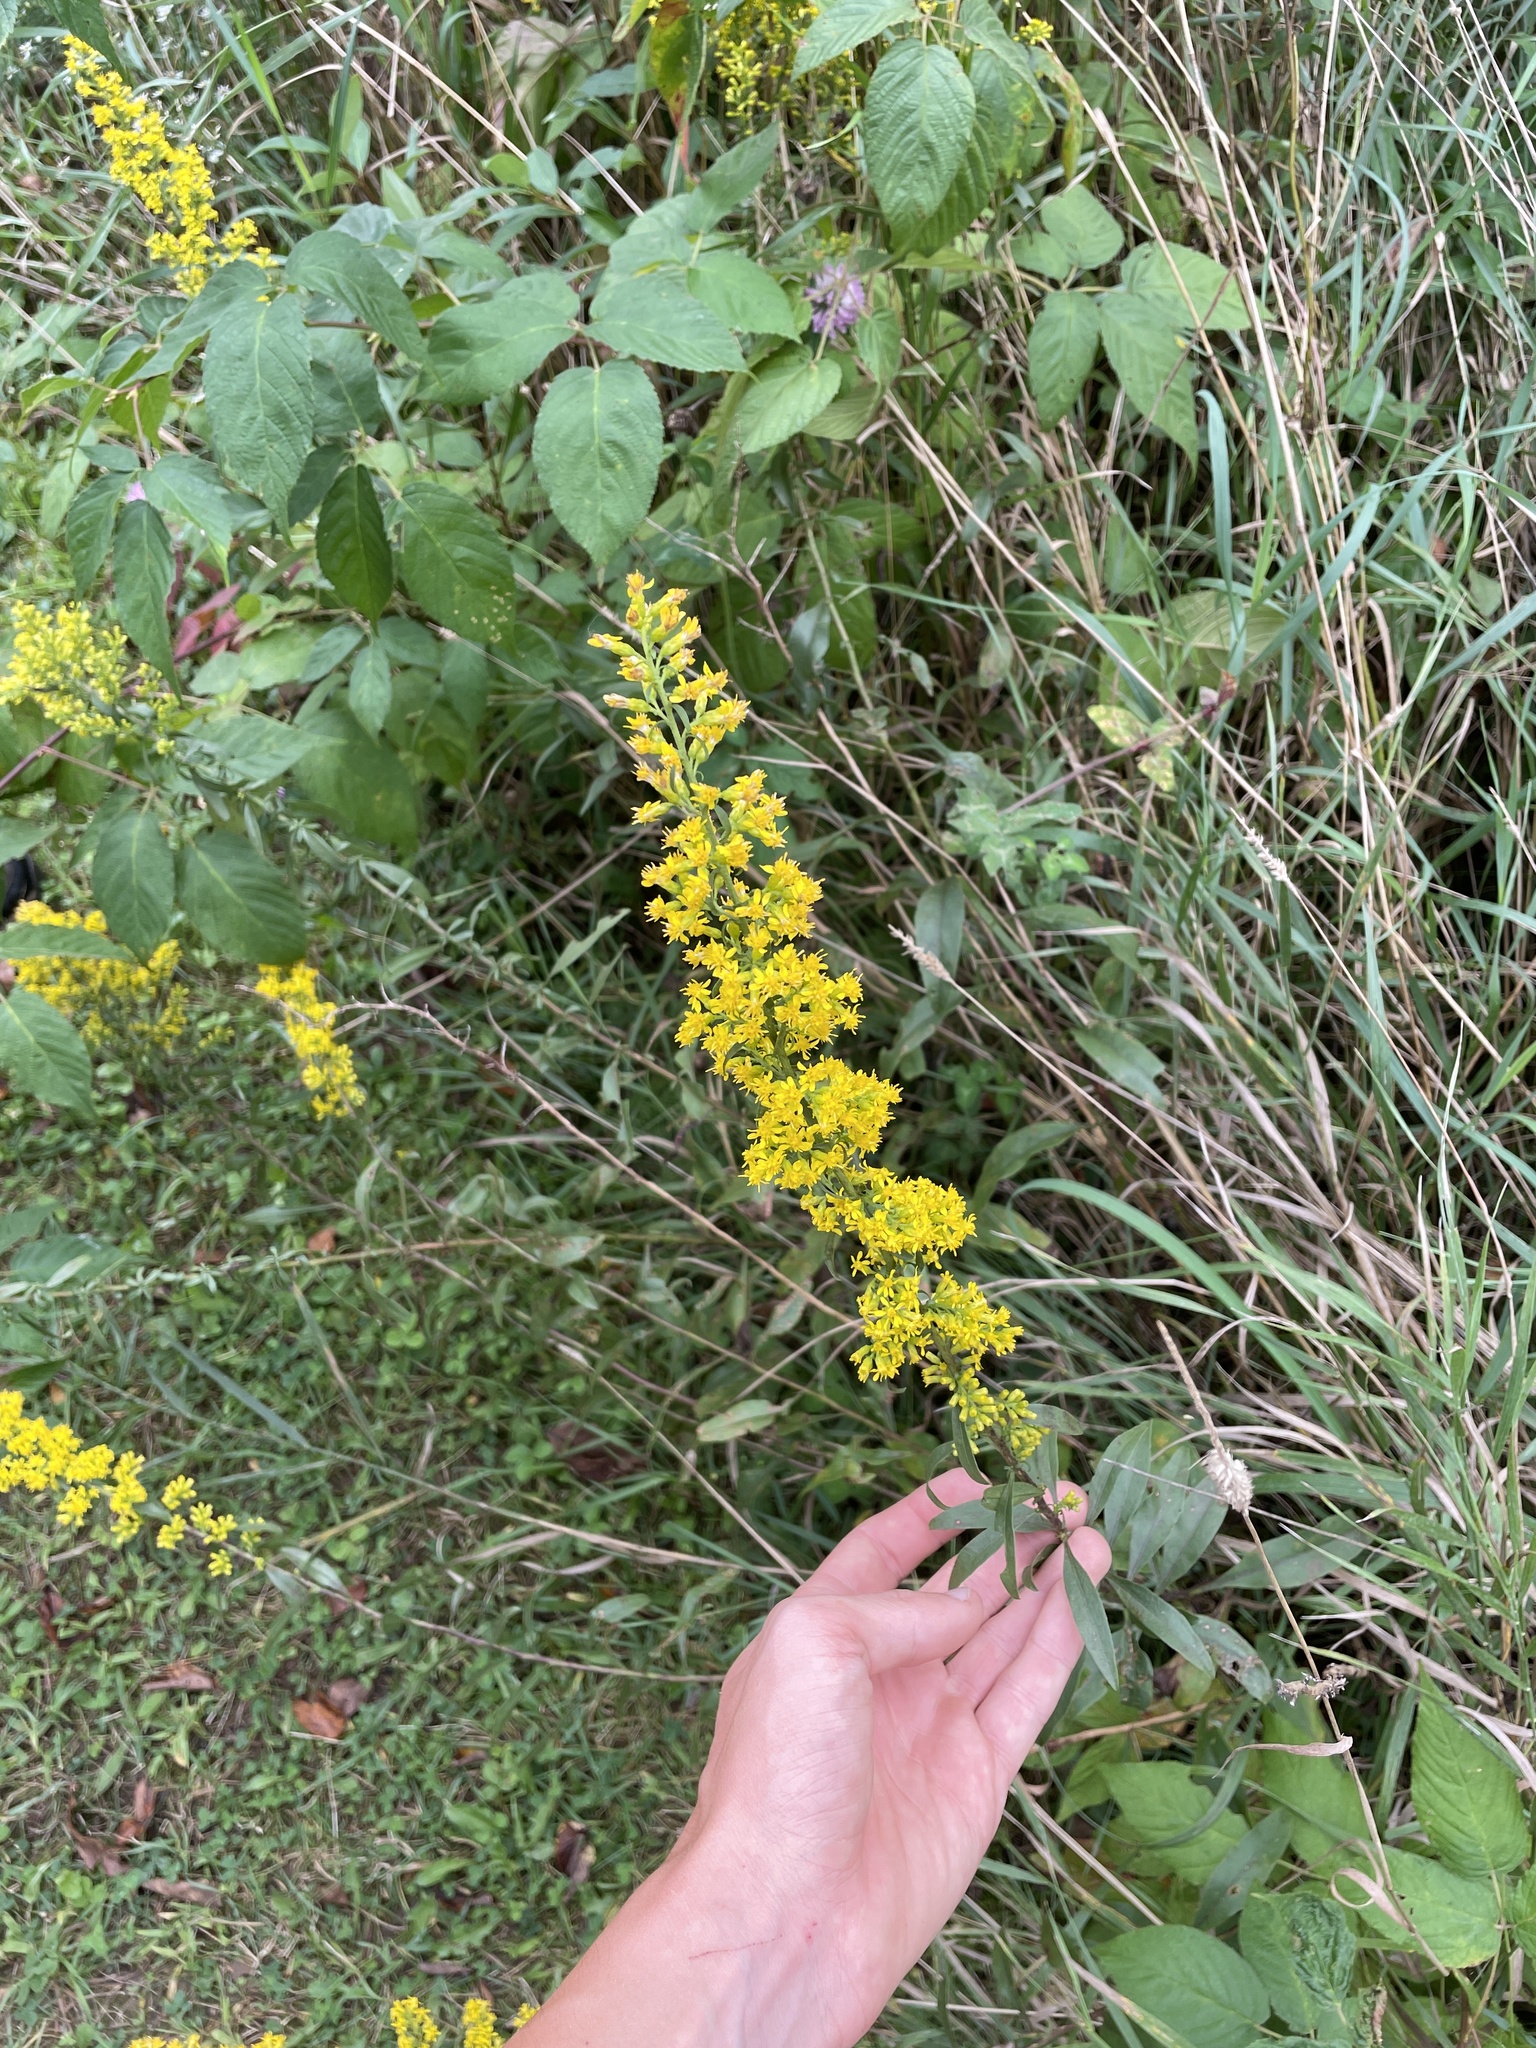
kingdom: Plantae
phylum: Tracheophyta
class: Magnoliopsida
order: Asterales
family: Asteraceae
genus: Solidago
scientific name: Solidago rigidiuscula
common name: Stiff-leaved showy goldenrod
